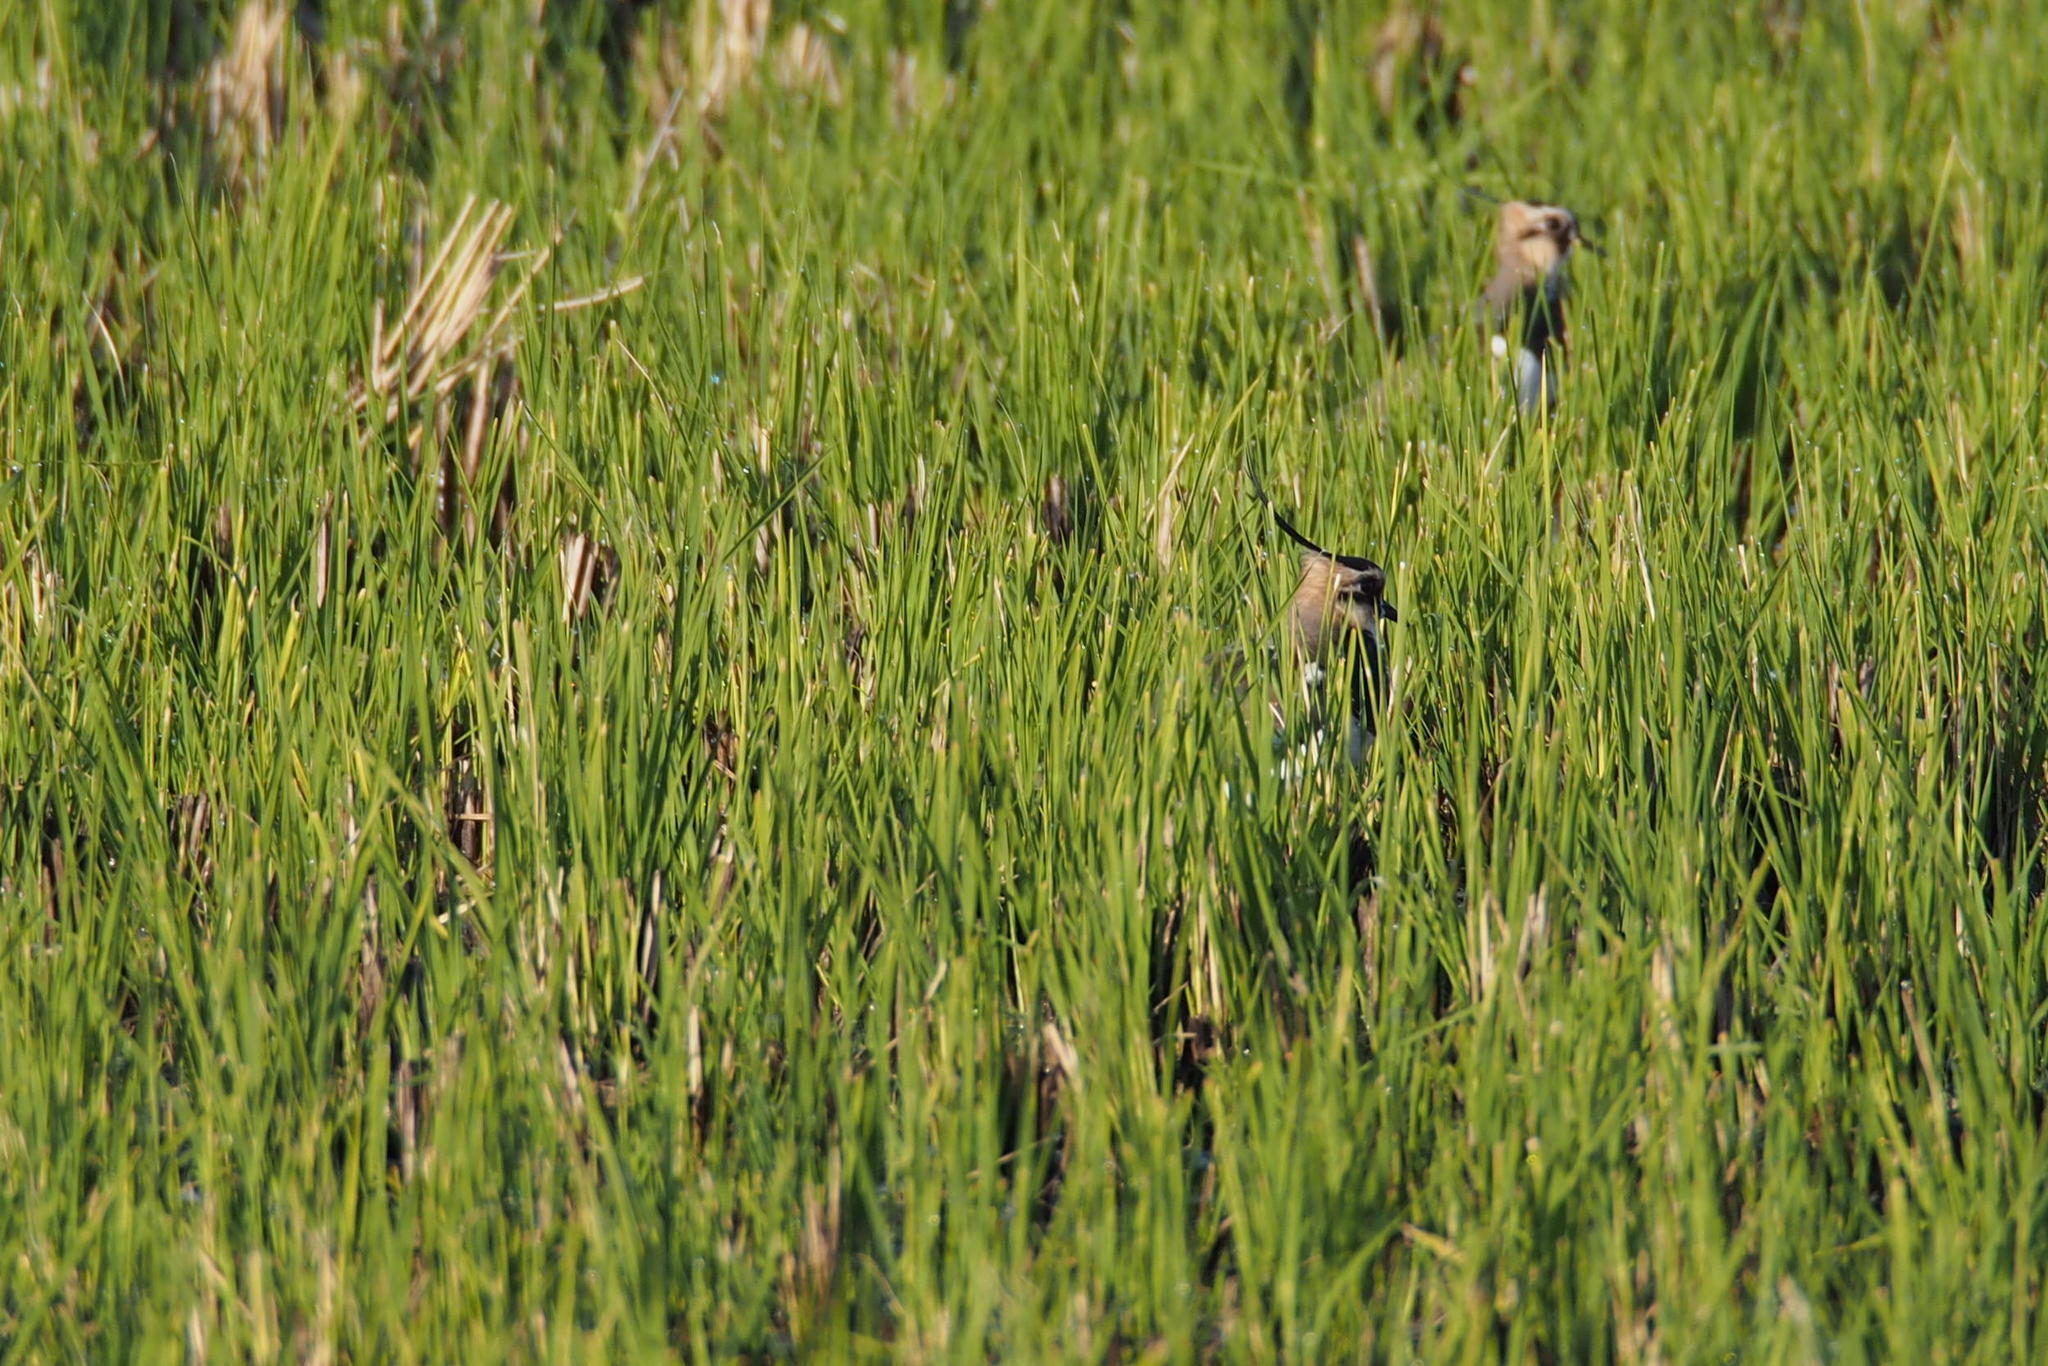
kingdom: Animalia
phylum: Chordata
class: Aves
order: Charadriiformes
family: Charadriidae
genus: Vanellus
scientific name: Vanellus vanellus
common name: Northern lapwing
